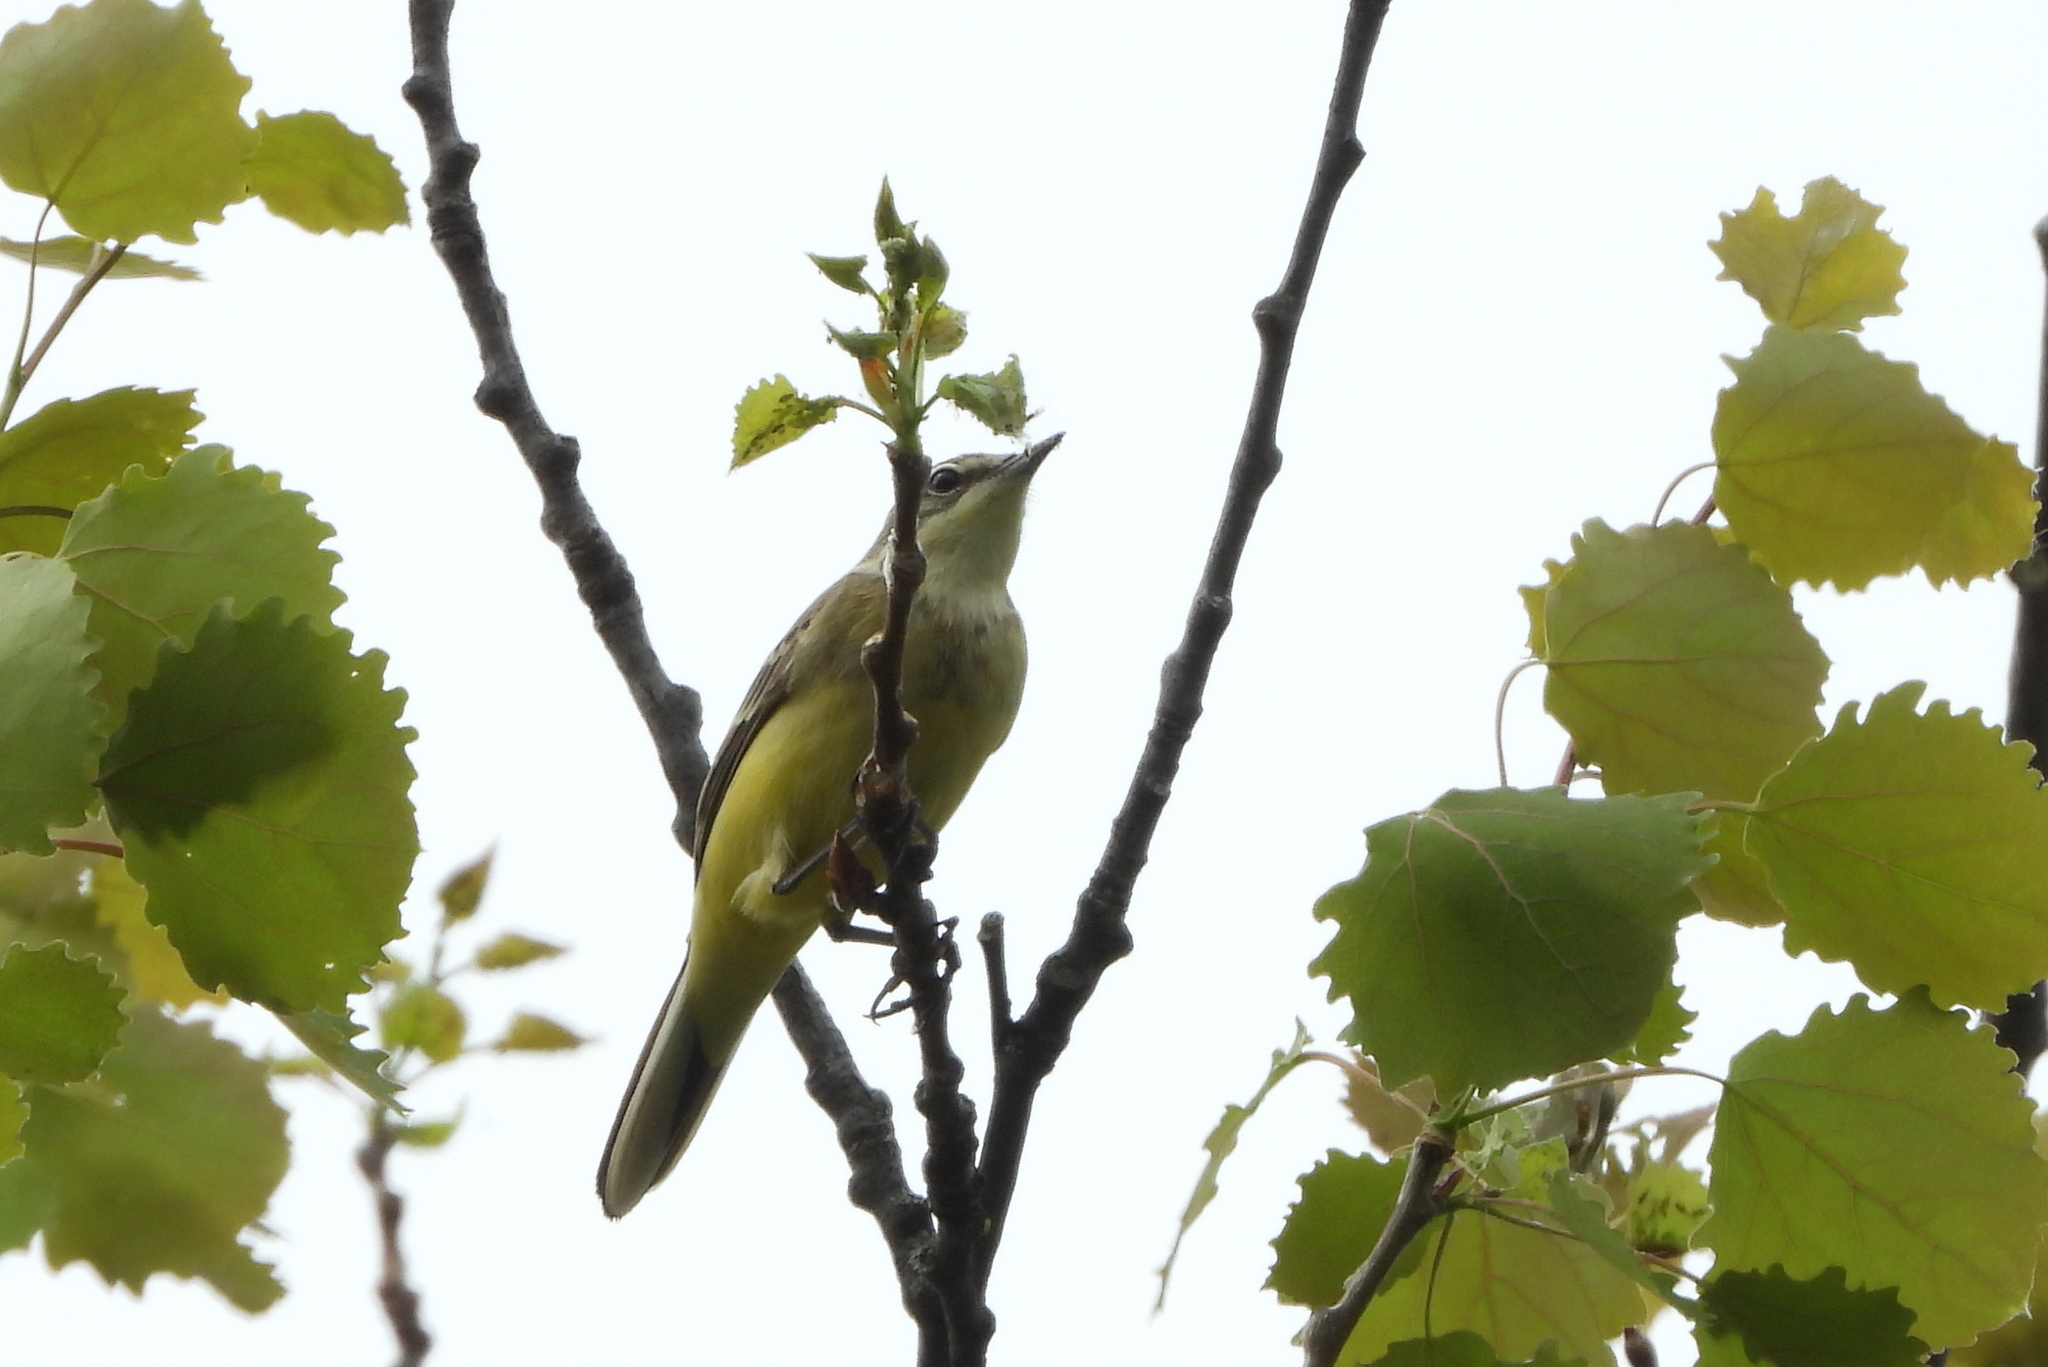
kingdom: Animalia
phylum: Chordata
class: Aves
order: Passeriformes
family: Motacillidae
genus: Motacilla
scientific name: Motacilla flava
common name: Western yellow wagtail
